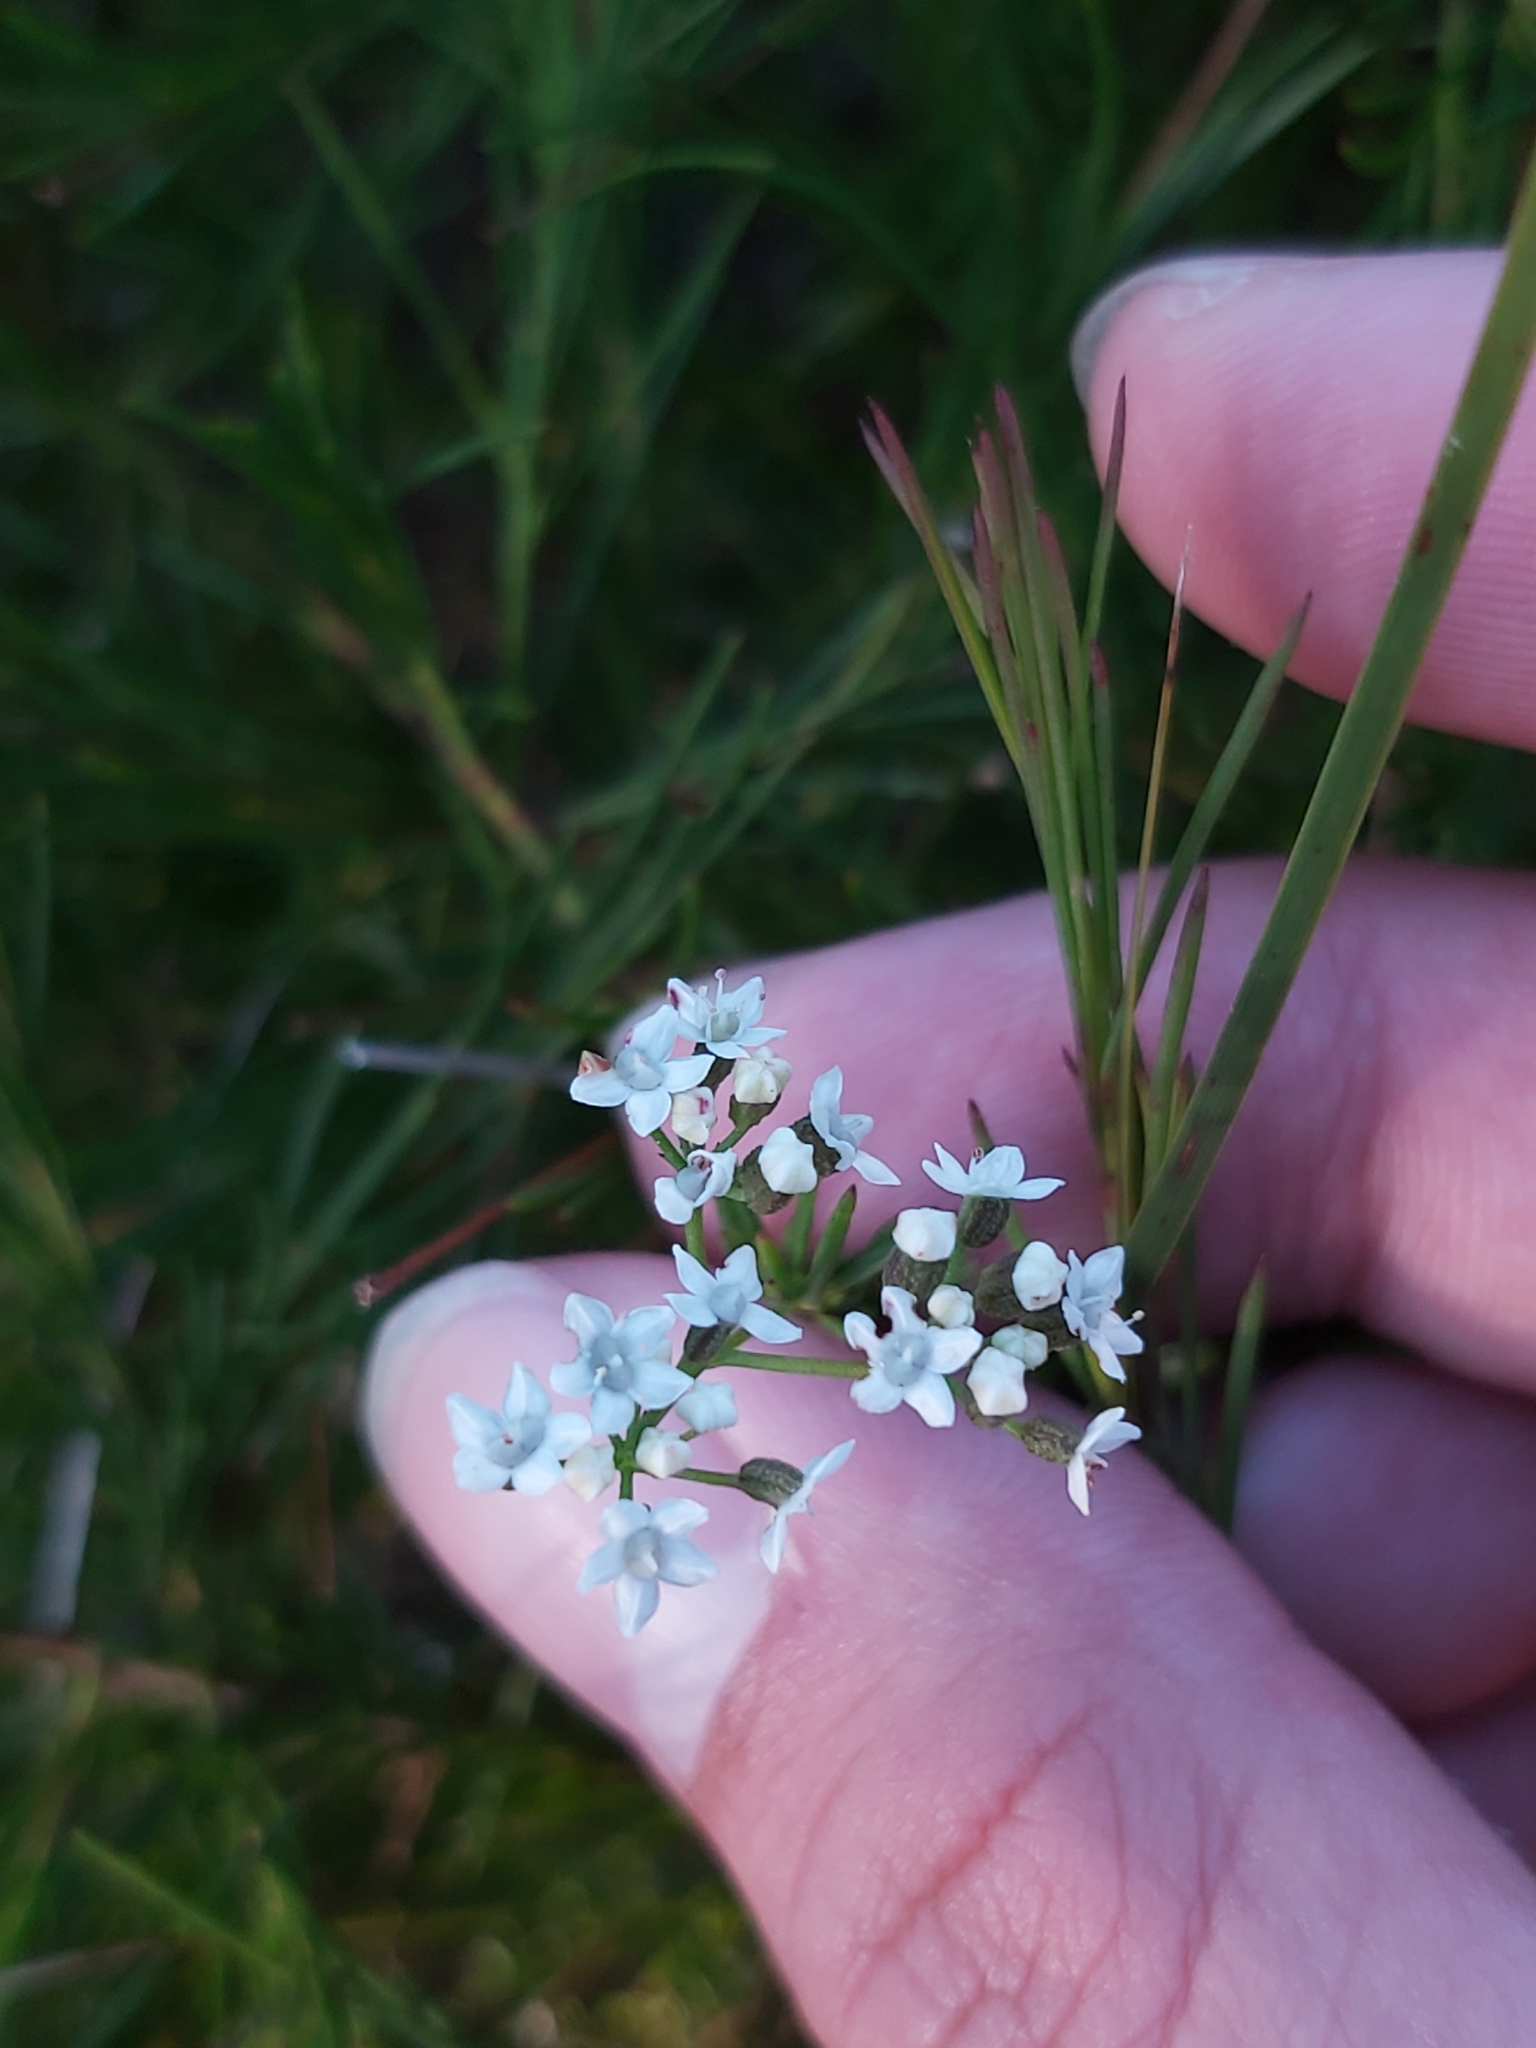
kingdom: Plantae
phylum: Tracheophyta
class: Magnoliopsida
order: Apiales
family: Apiaceae
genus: Platysace
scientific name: Platysace linearifolia
